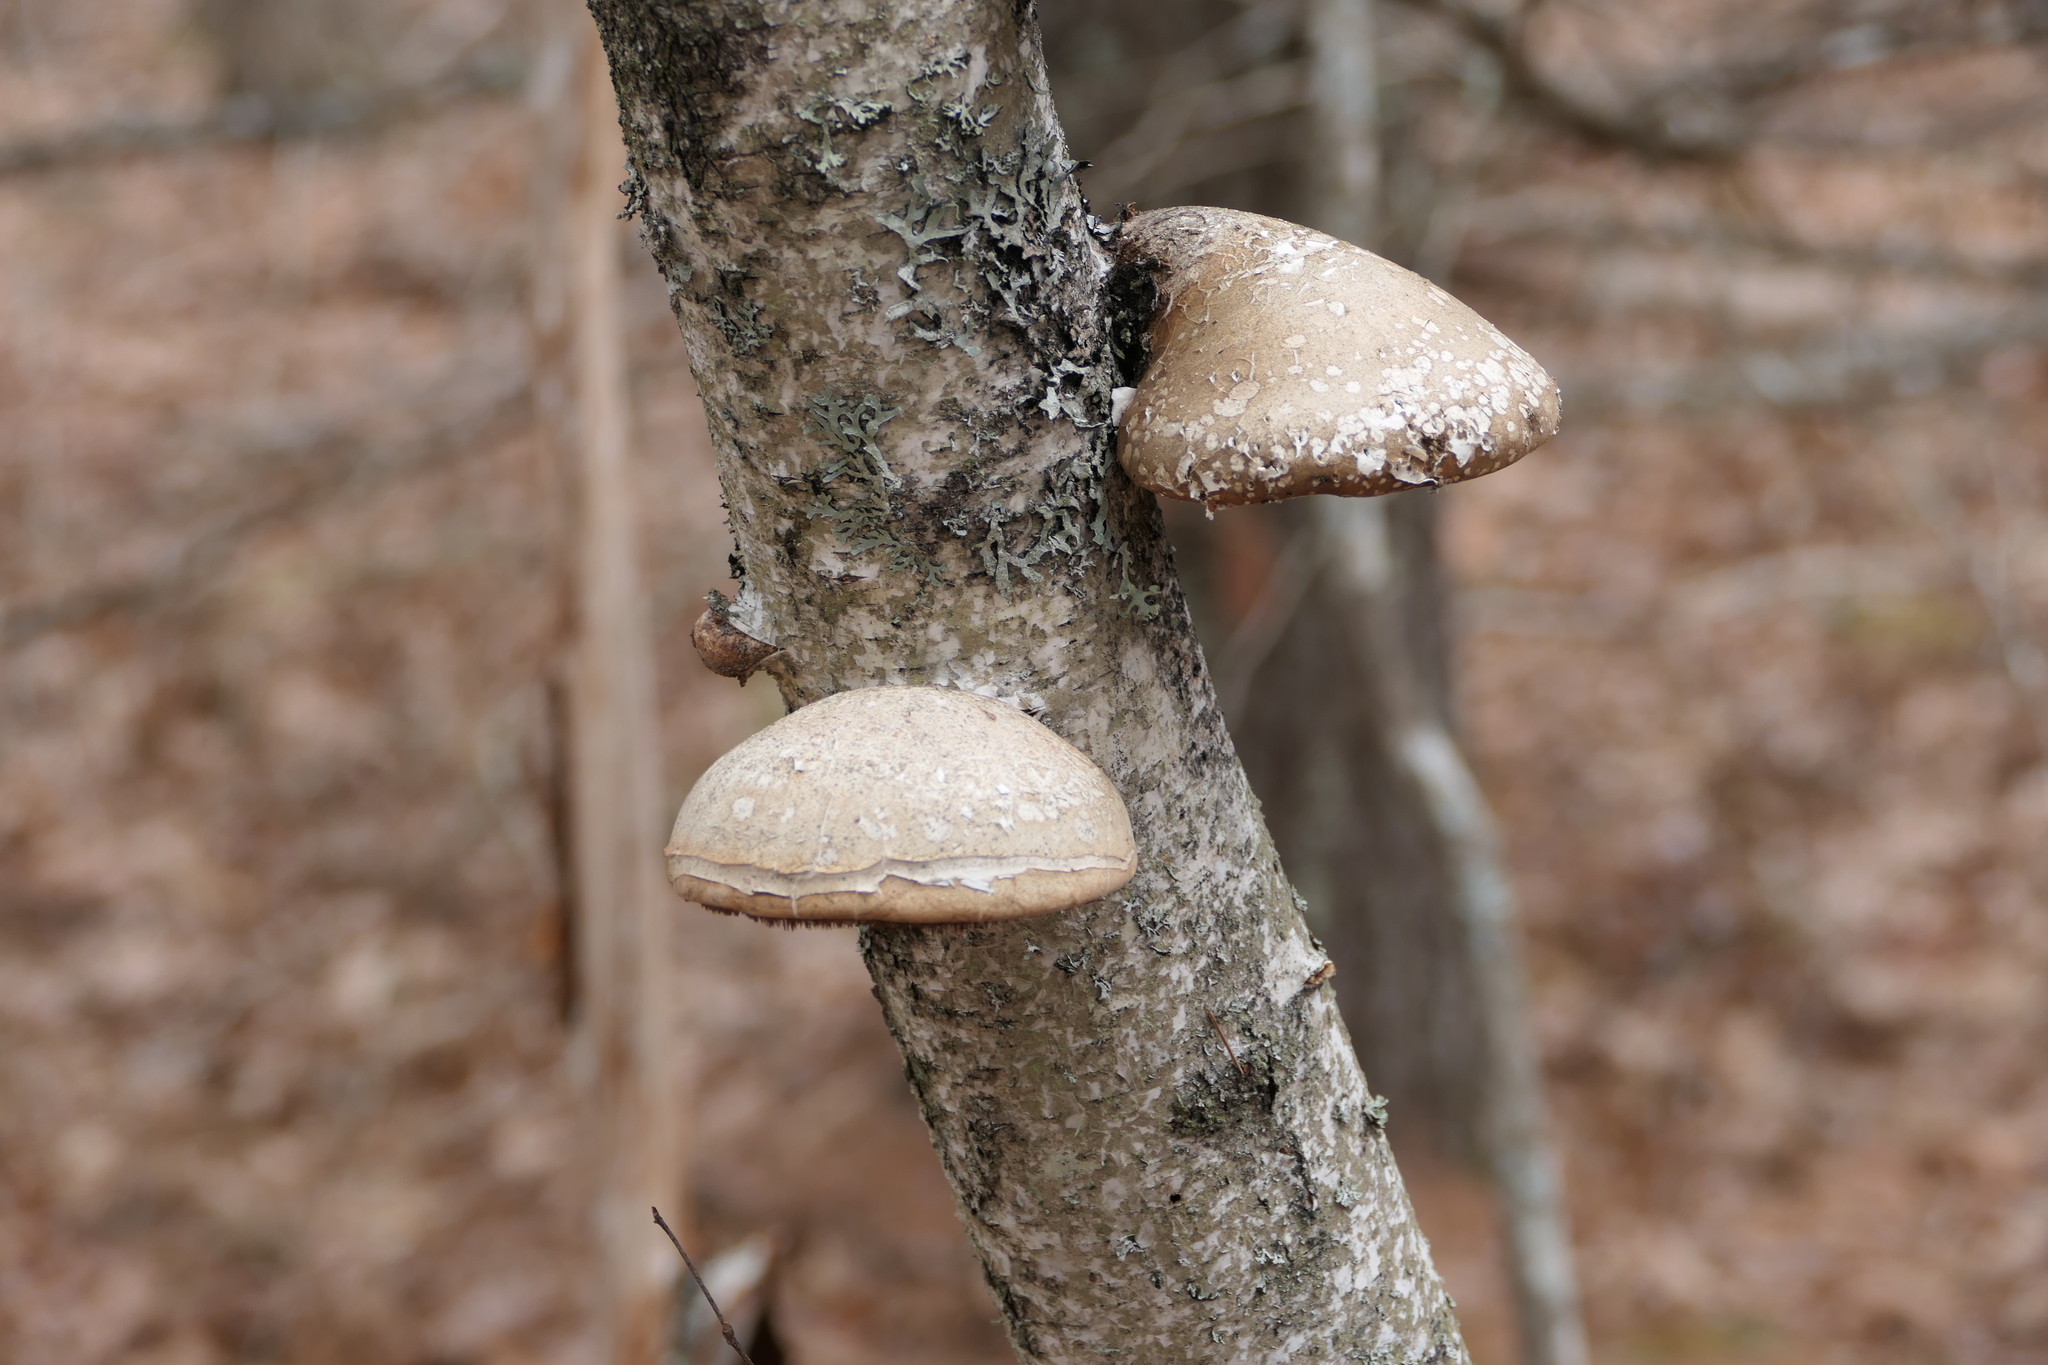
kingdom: Fungi
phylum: Basidiomycota
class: Agaricomycetes
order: Polyporales
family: Fomitopsidaceae
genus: Fomitopsis
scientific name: Fomitopsis betulina
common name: Birch polypore
